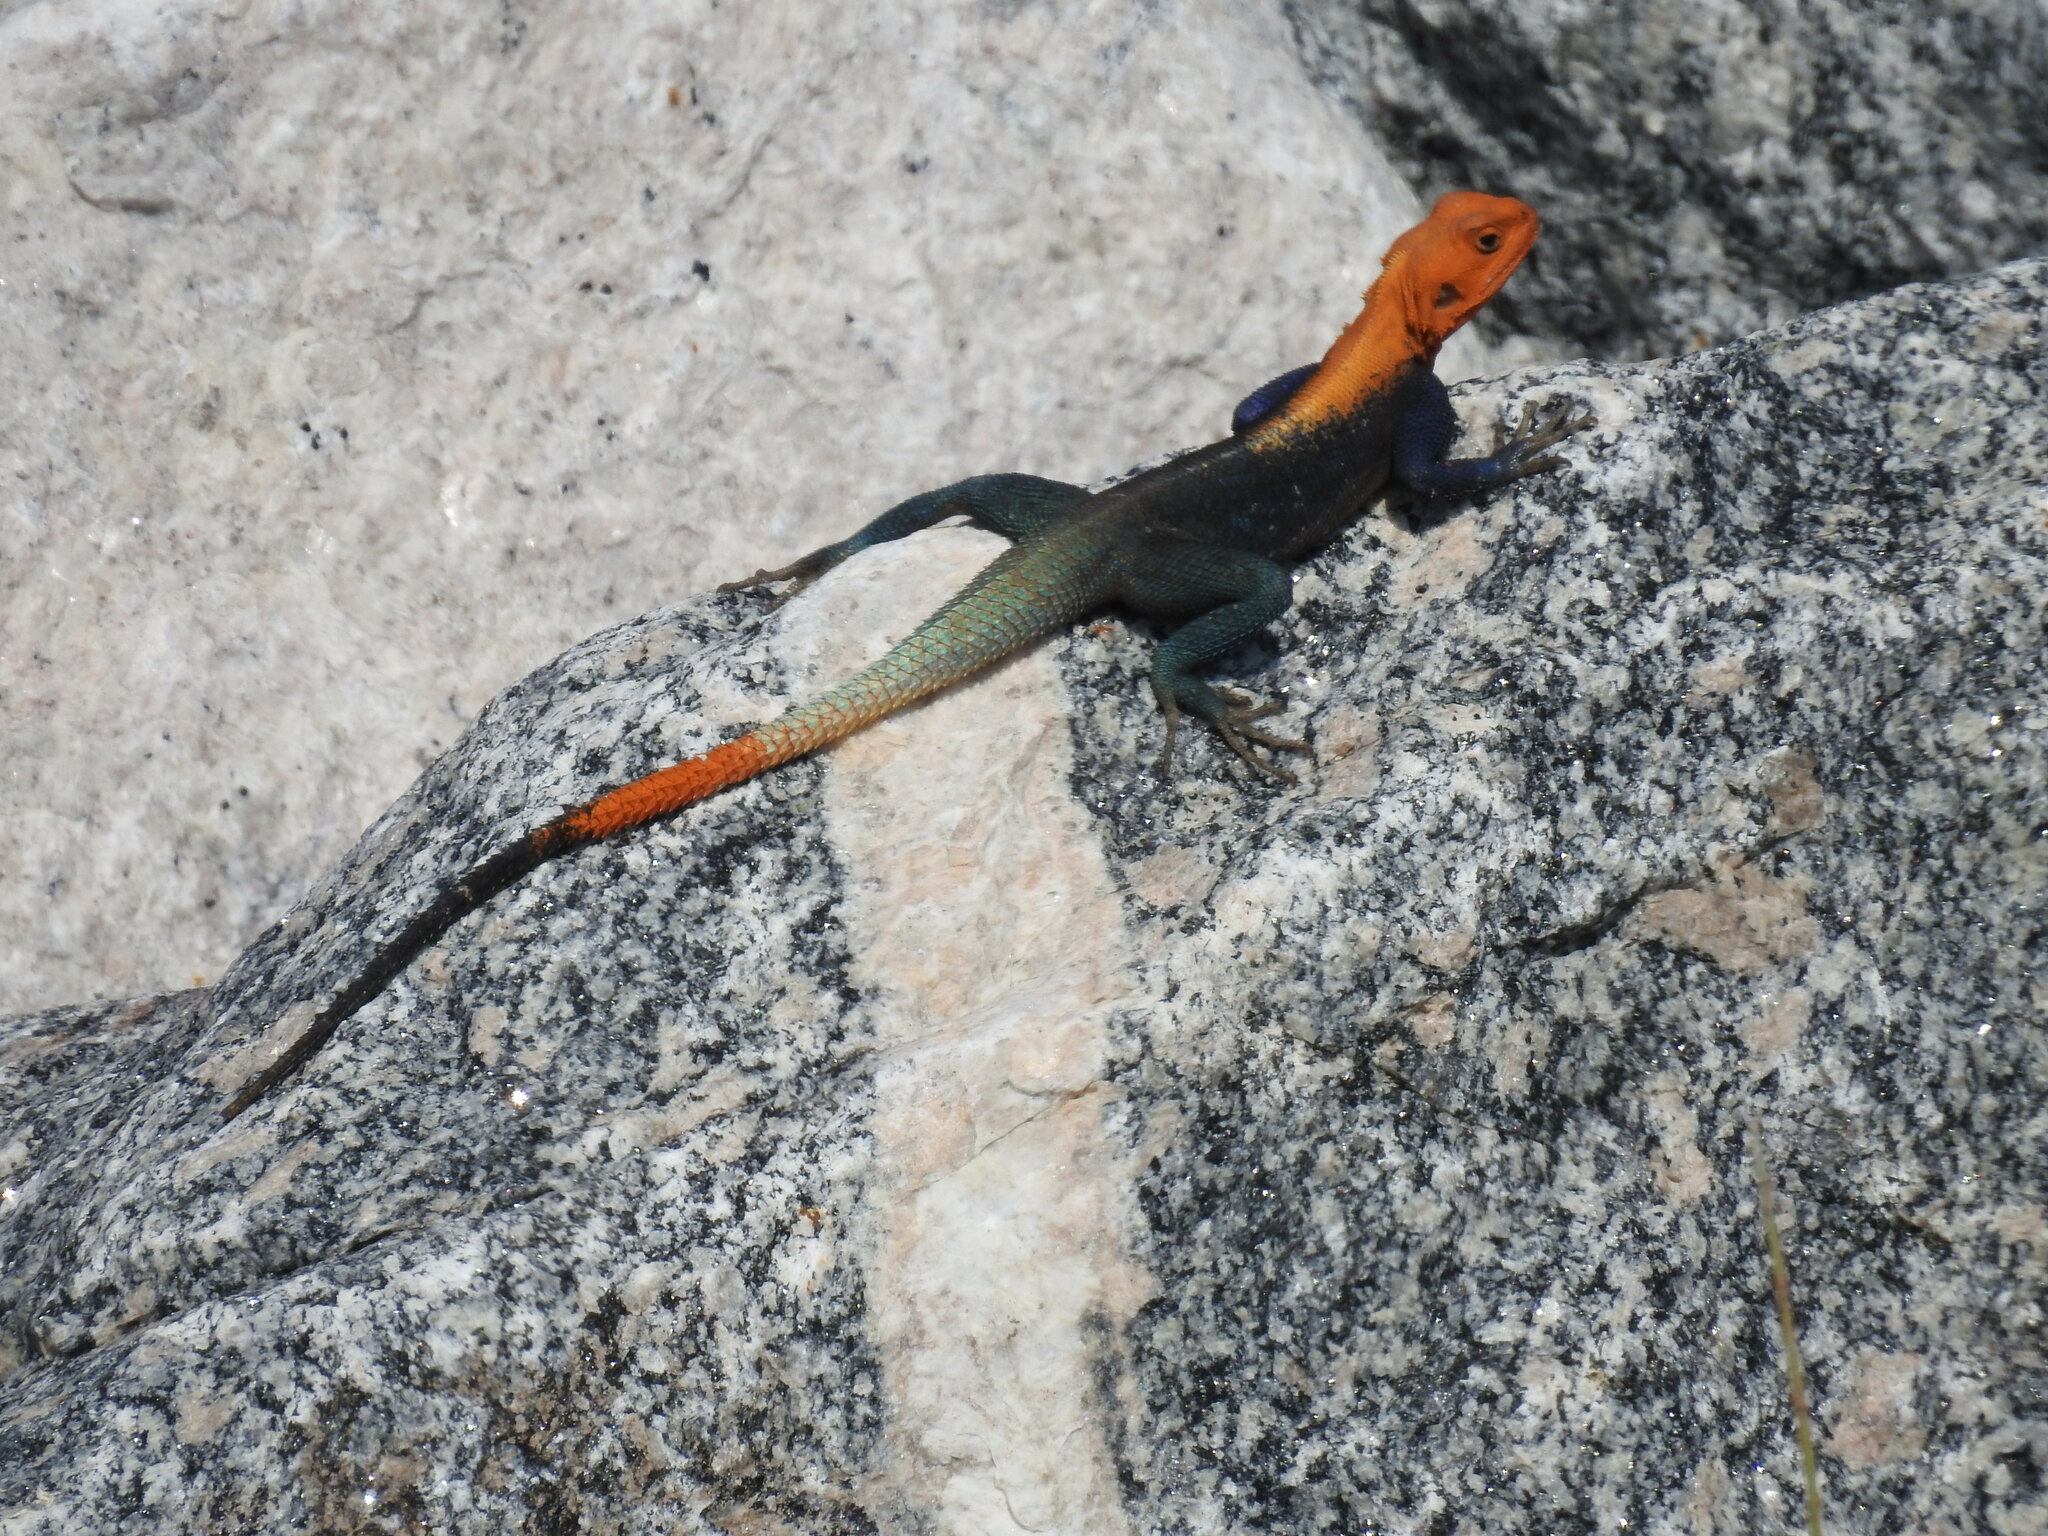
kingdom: Animalia
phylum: Chordata
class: Squamata
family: Agamidae
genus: Agama
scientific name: Agama picticauda
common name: Red-headed agama
